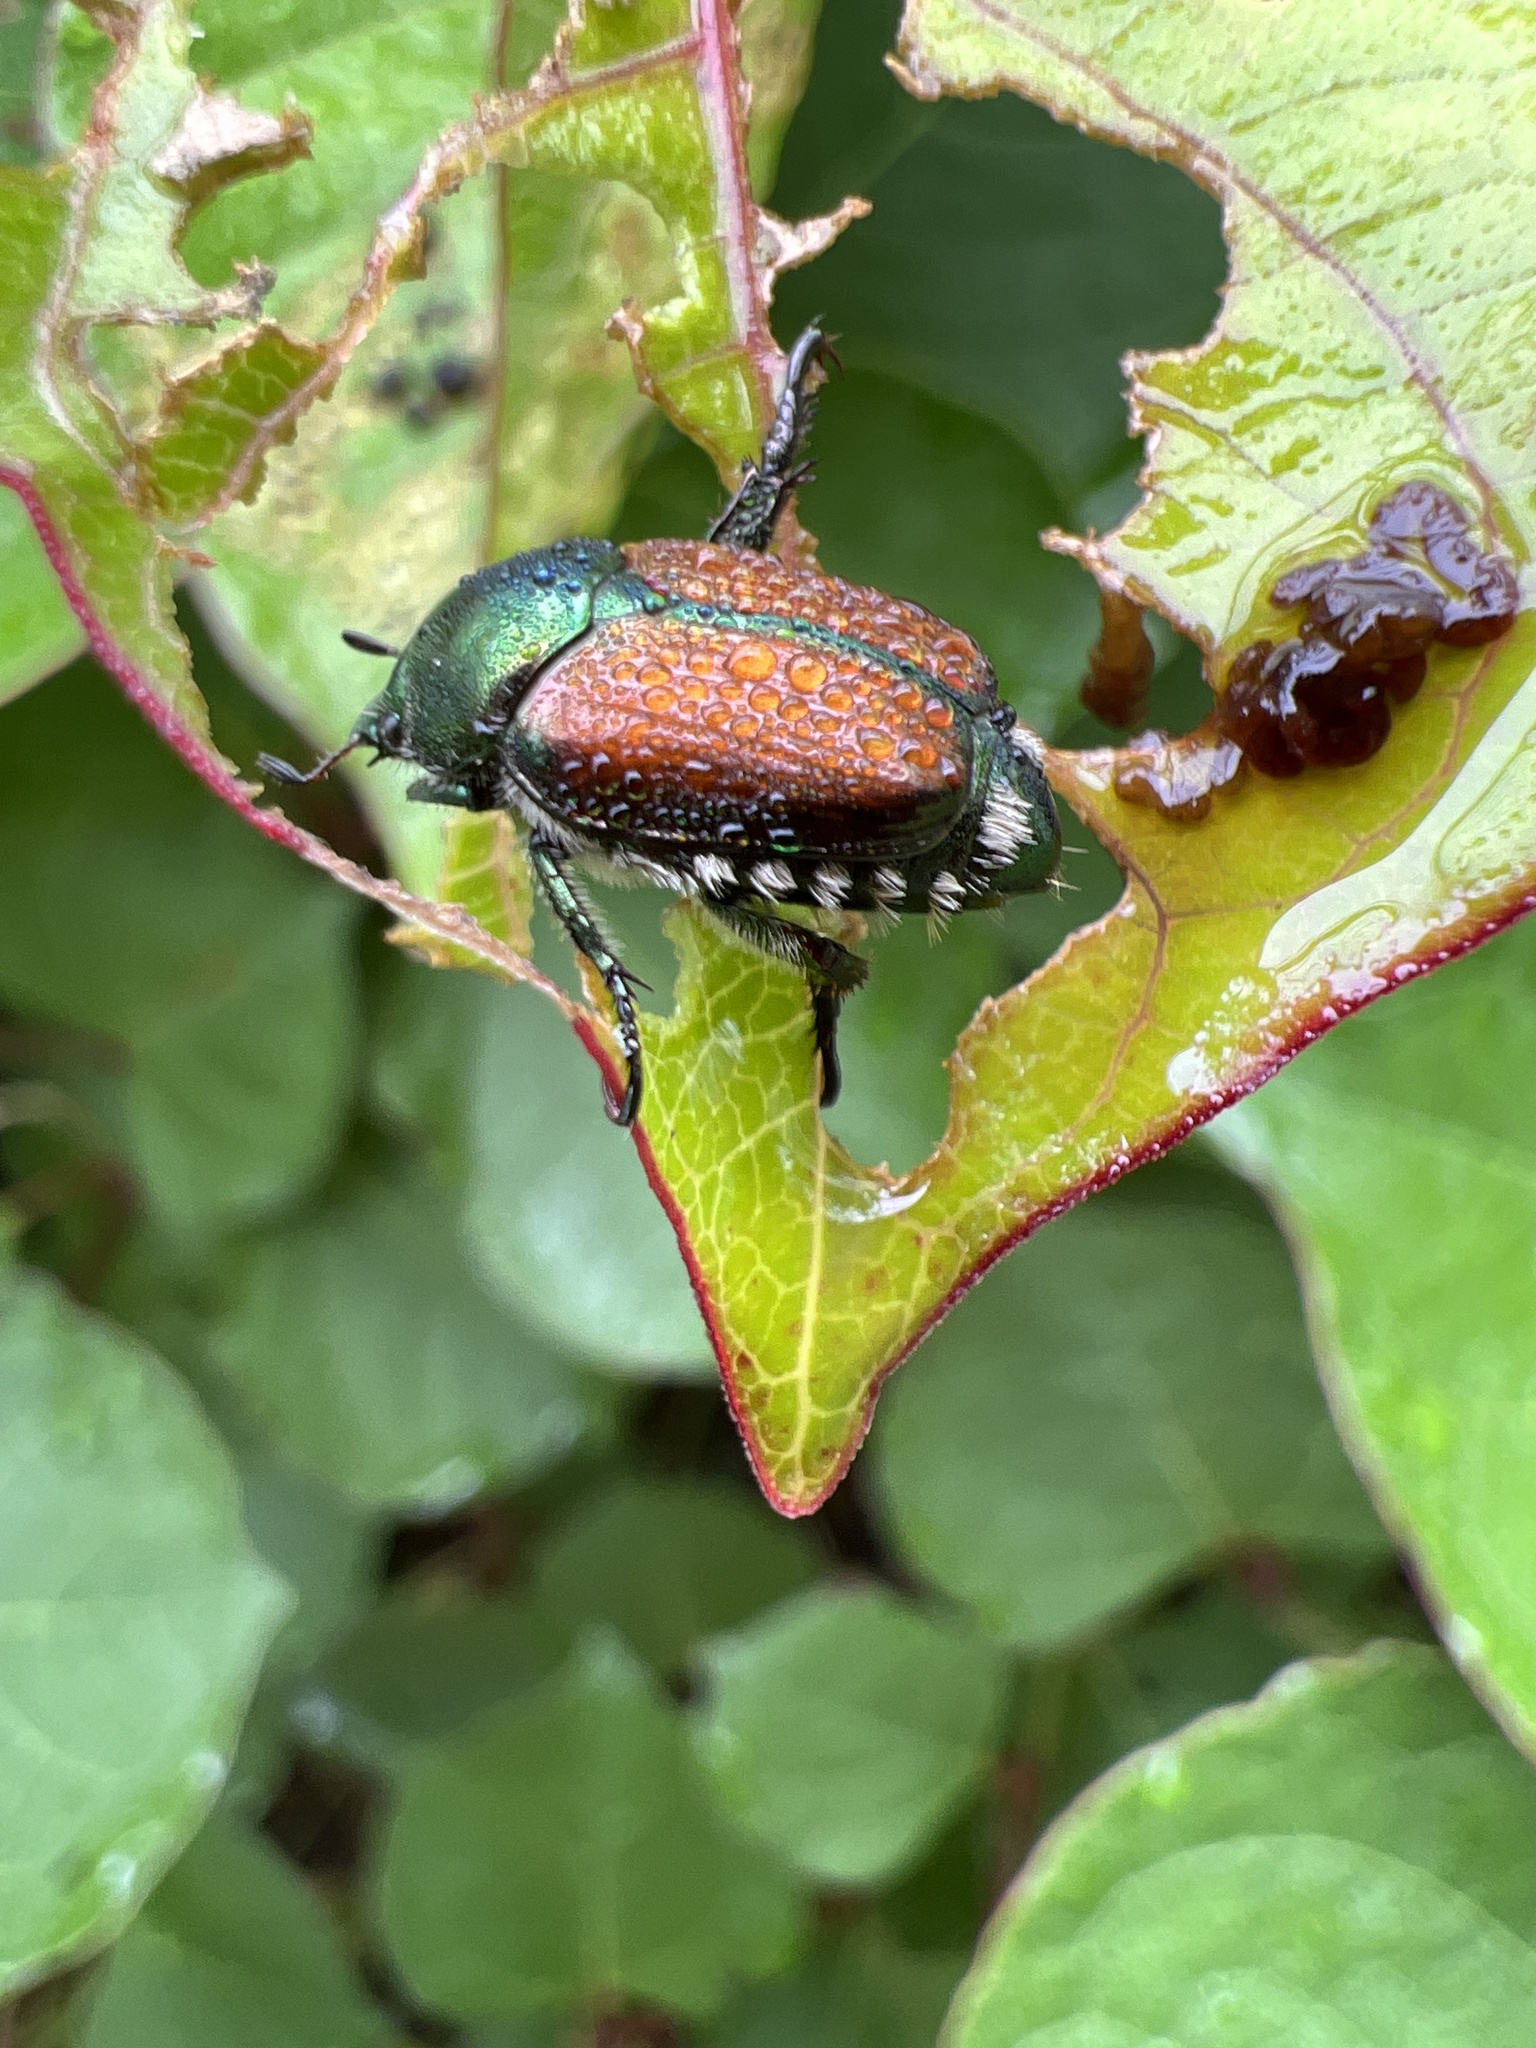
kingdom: Animalia
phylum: Arthropoda
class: Insecta
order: Coleoptera
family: Scarabaeidae
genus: Popillia
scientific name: Popillia japonica
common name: Japanese beetle
